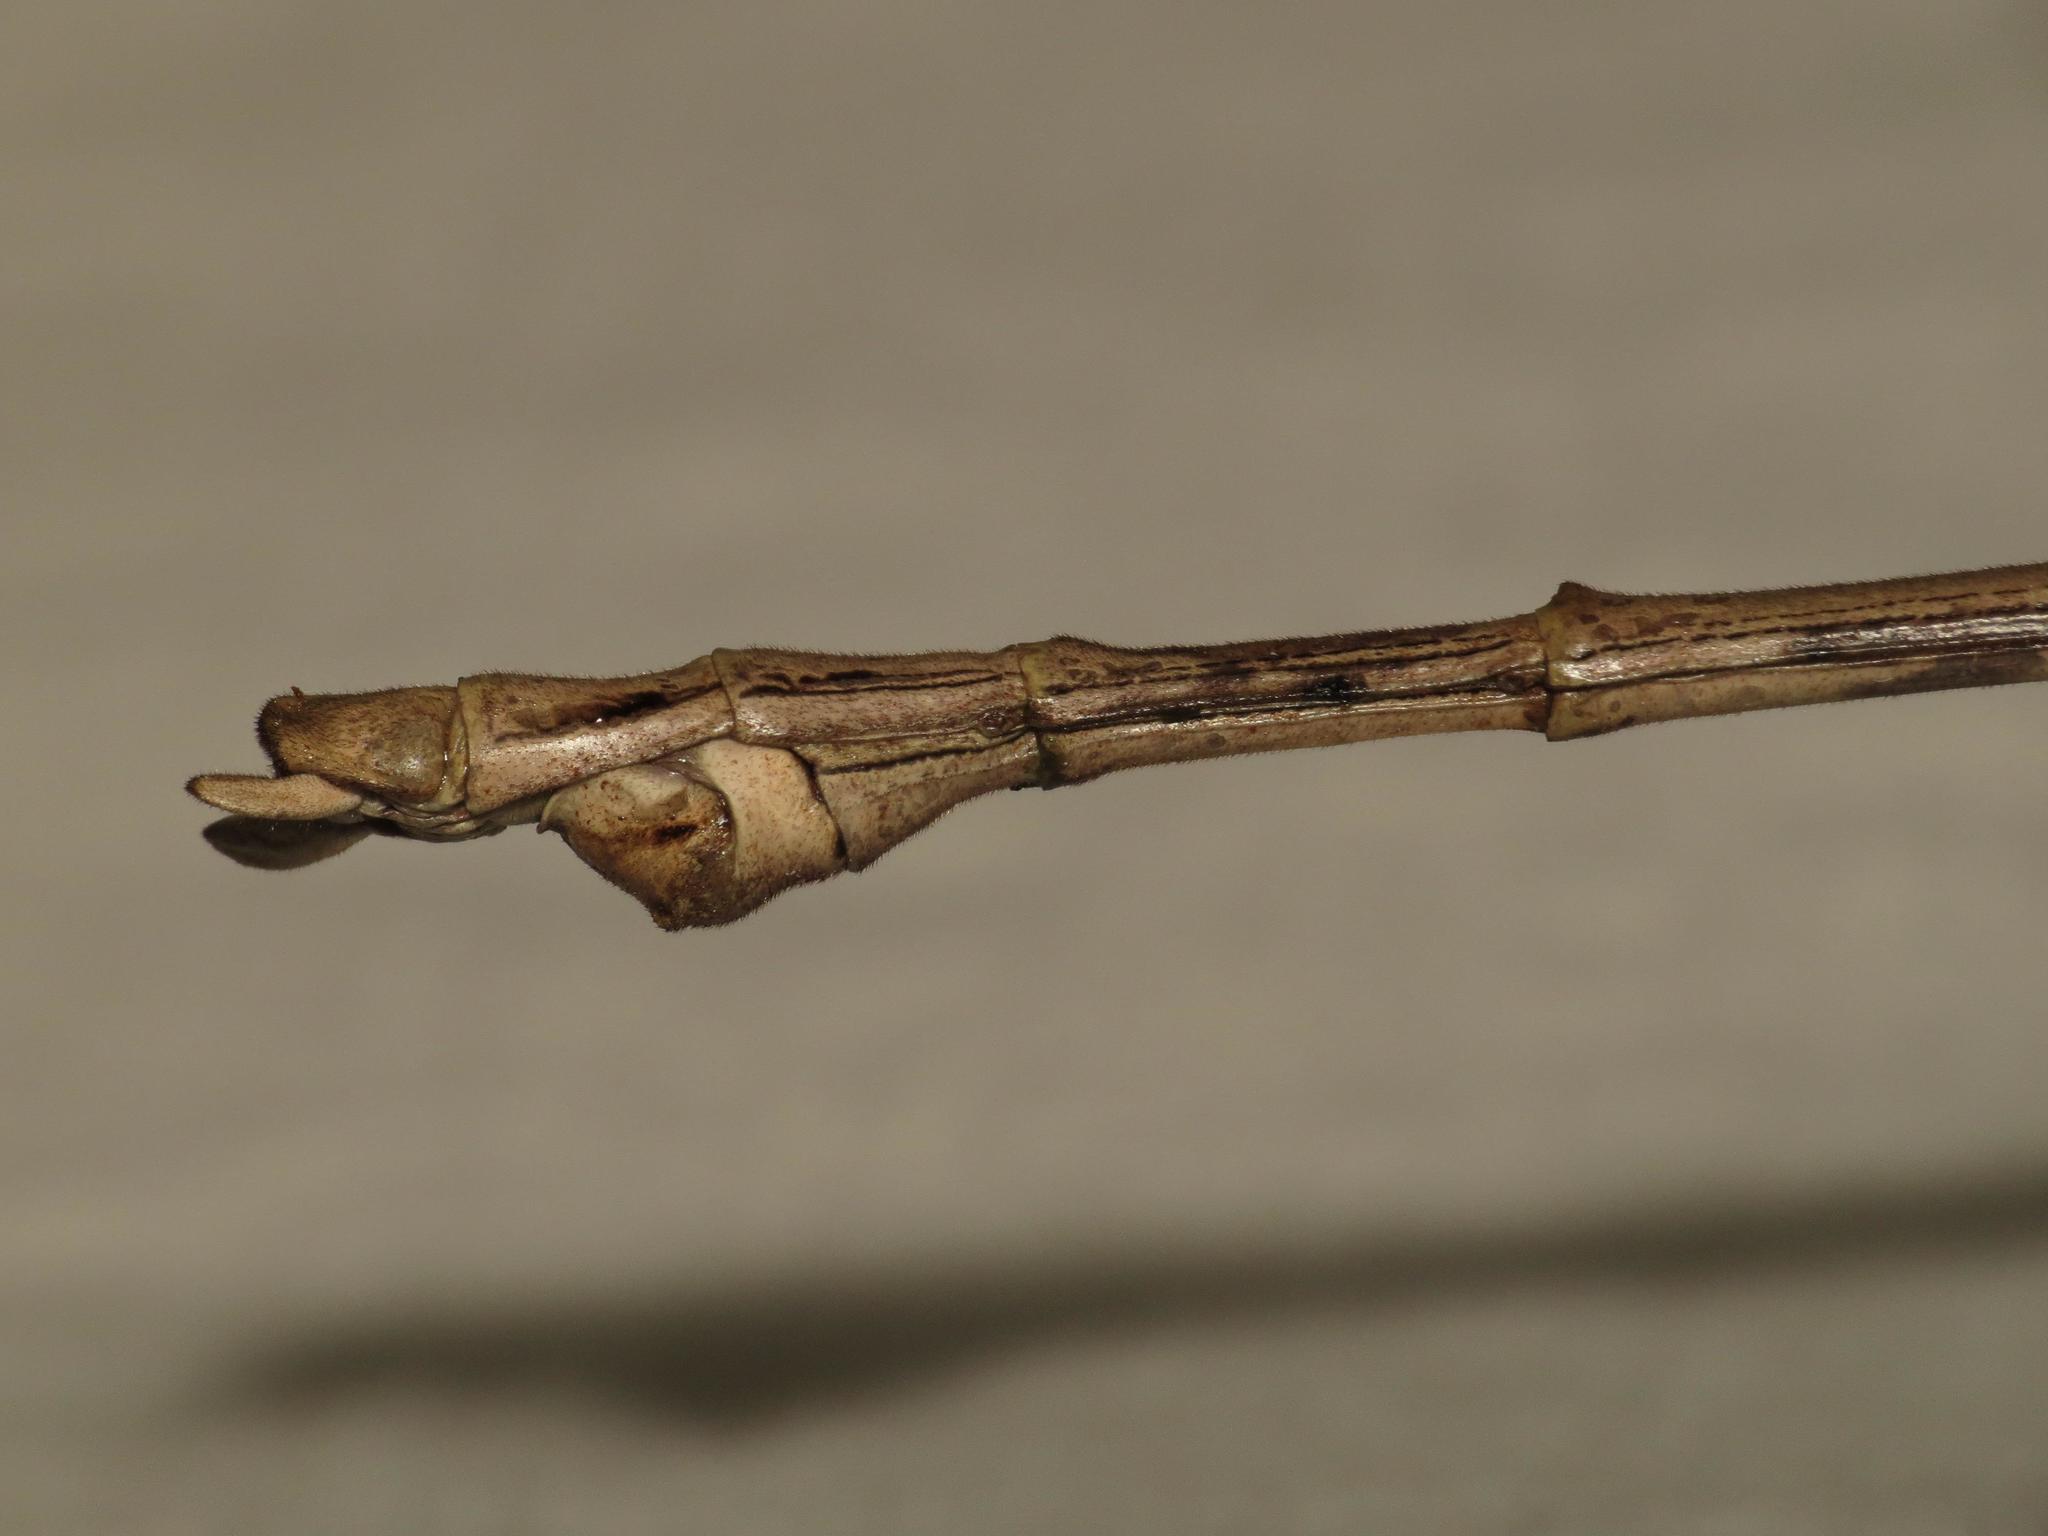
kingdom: Animalia
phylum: Arthropoda
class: Insecta
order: Phasmida
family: Phasmatidae
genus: Acrophylla
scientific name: Acrophylla wuelfingi
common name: Wülfing's stick insect
